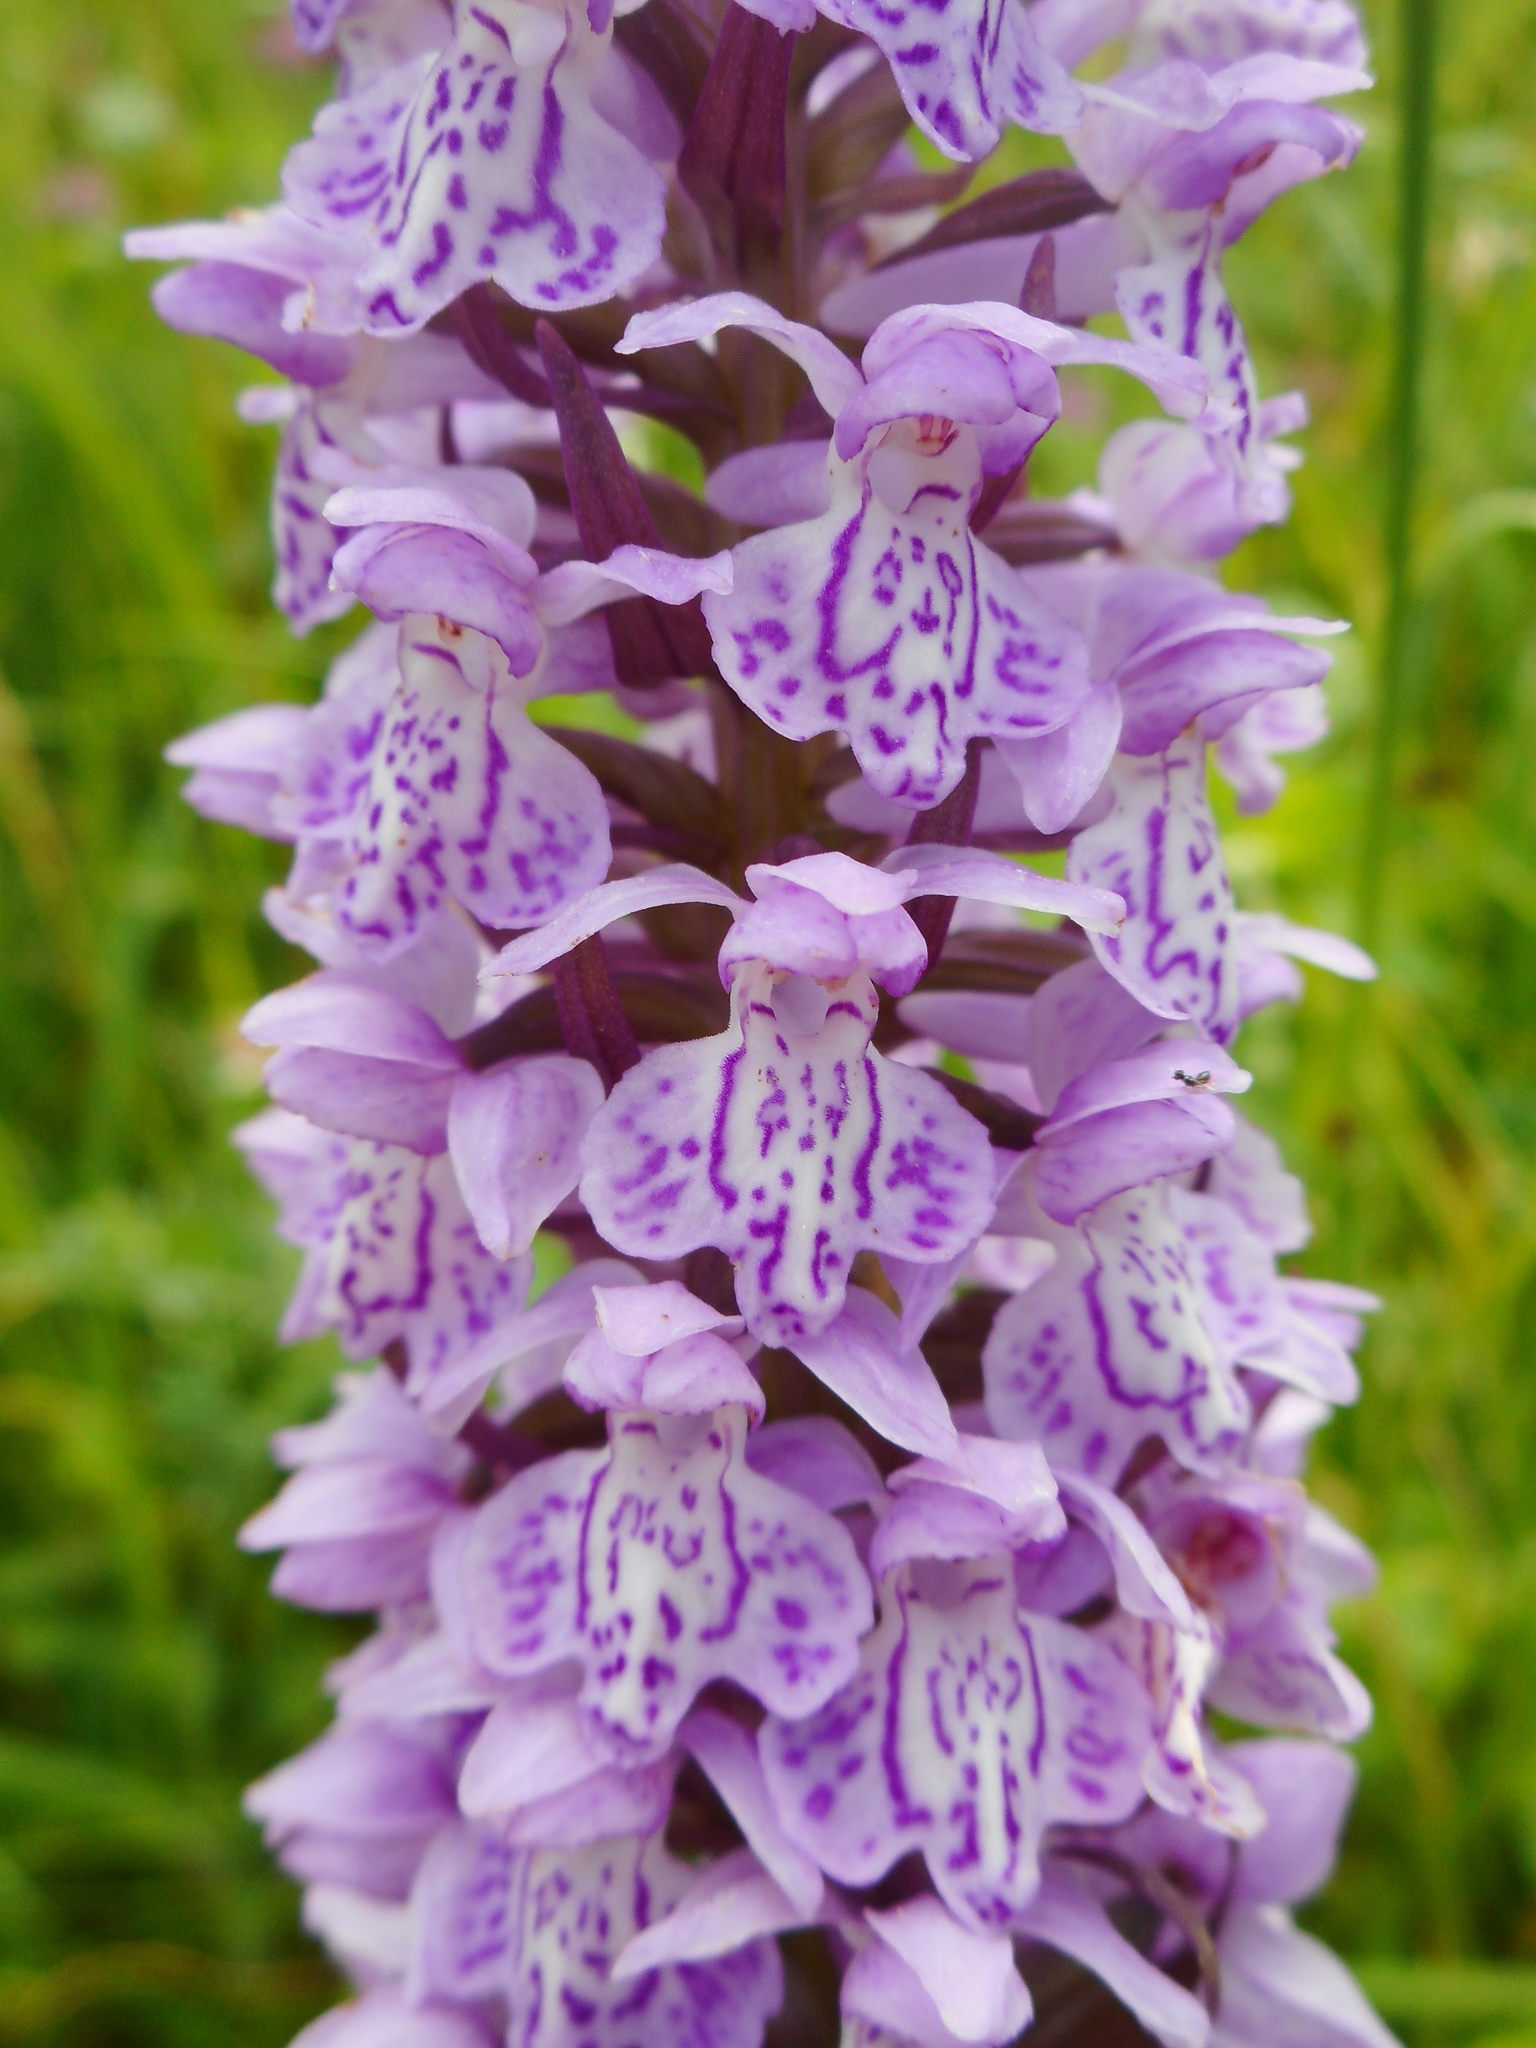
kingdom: Plantae
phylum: Tracheophyta
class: Liliopsida
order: Asparagales
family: Orchidaceae
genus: Dactylorhiza
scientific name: Dactylorhiza majalis
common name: Marsh orchid
